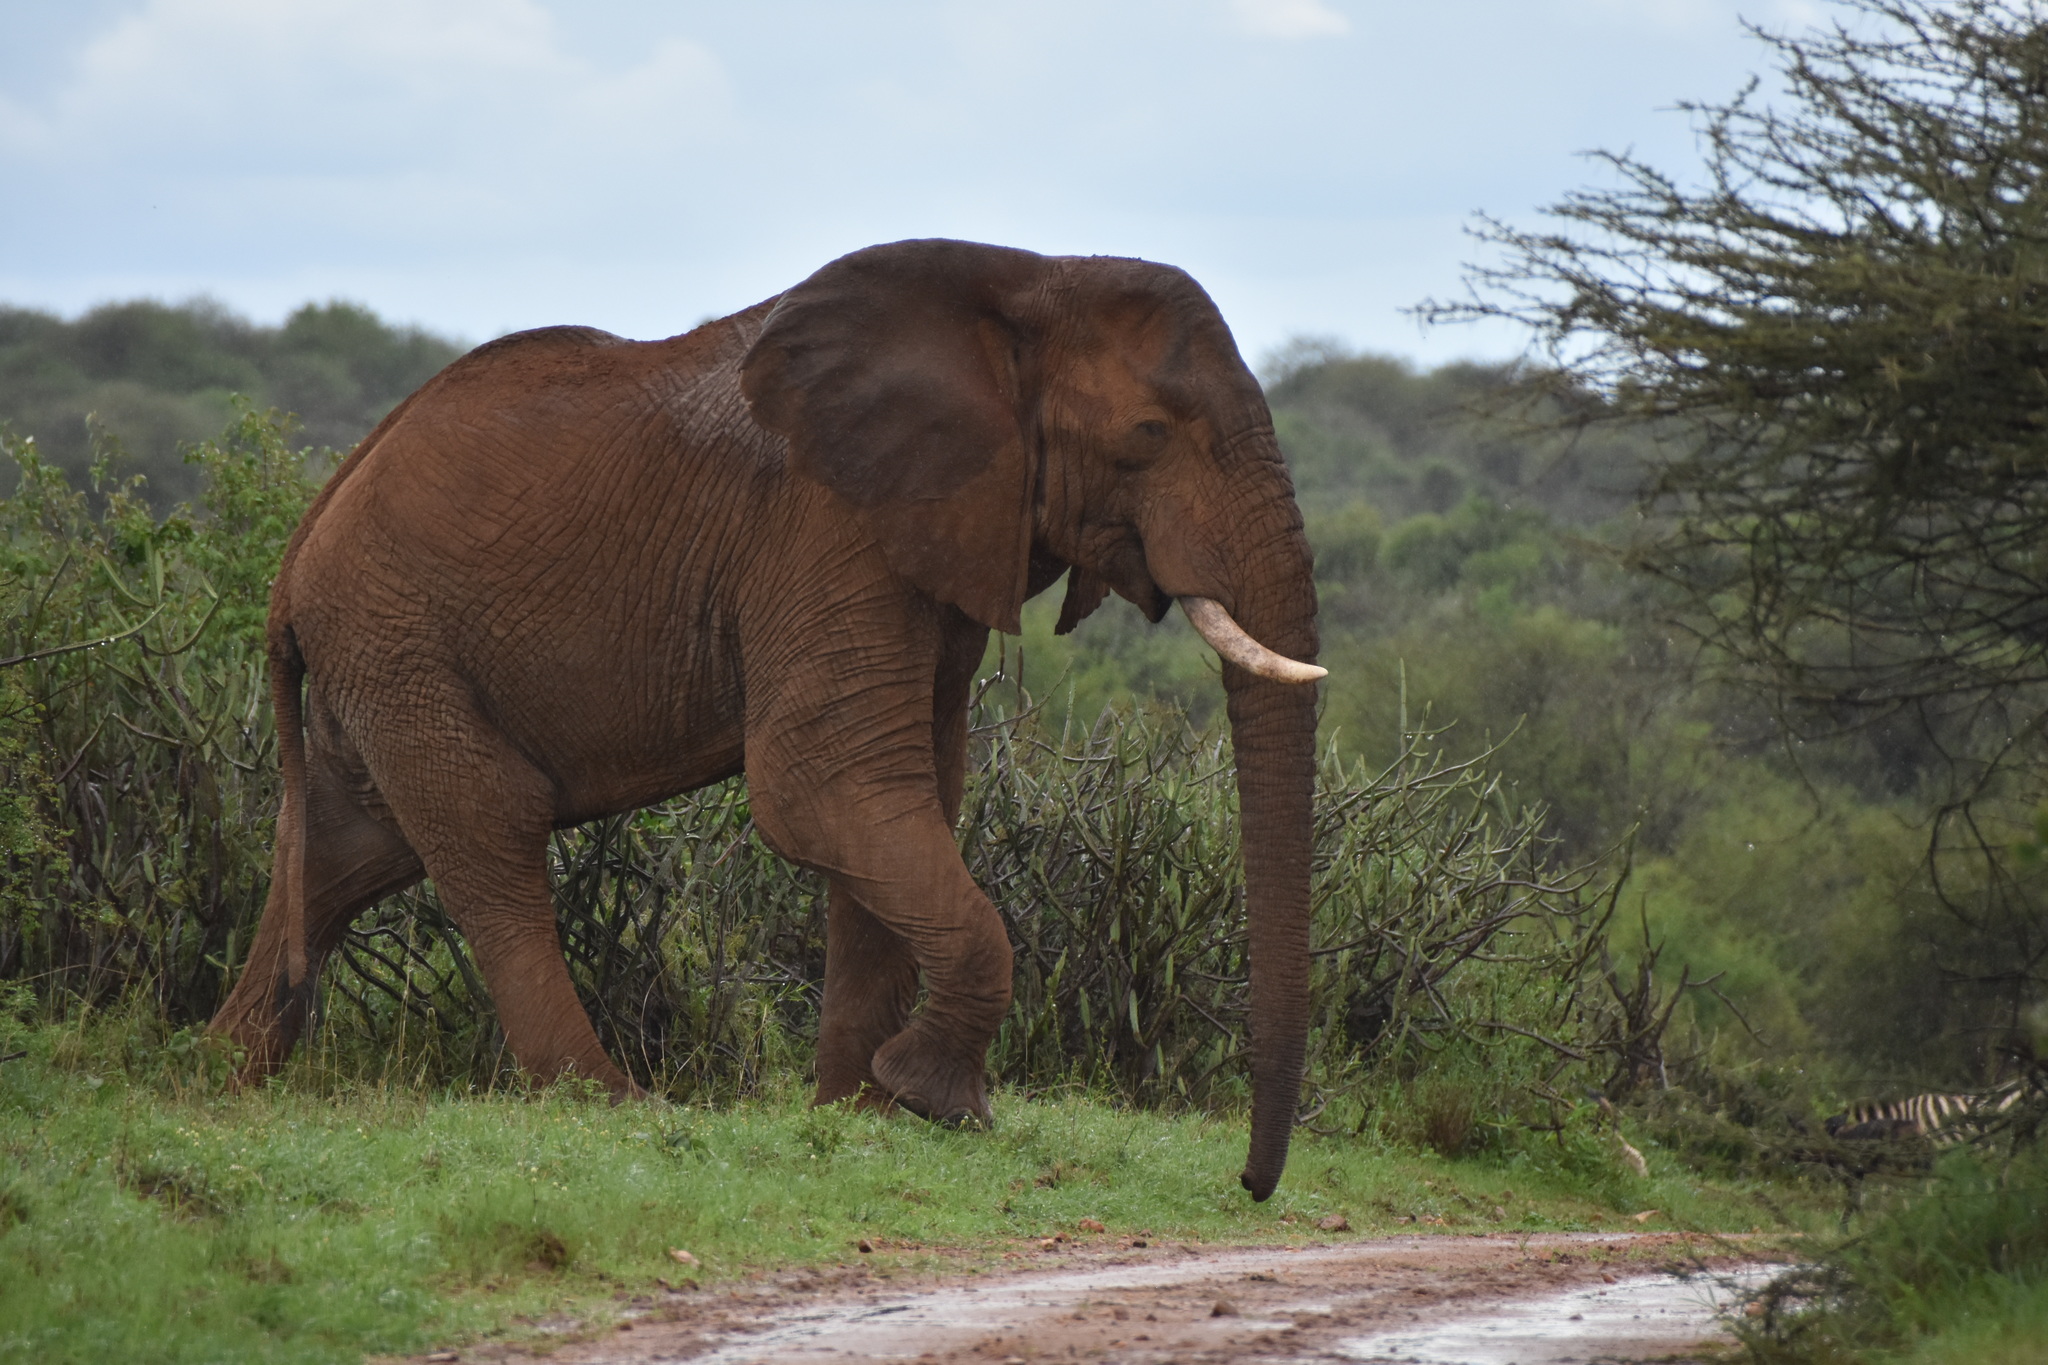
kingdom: Animalia
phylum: Chordata
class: Mammalia
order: Proboscidea
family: Elephantidae
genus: Loxodonta
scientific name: Loxodonta africana
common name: African elephant
